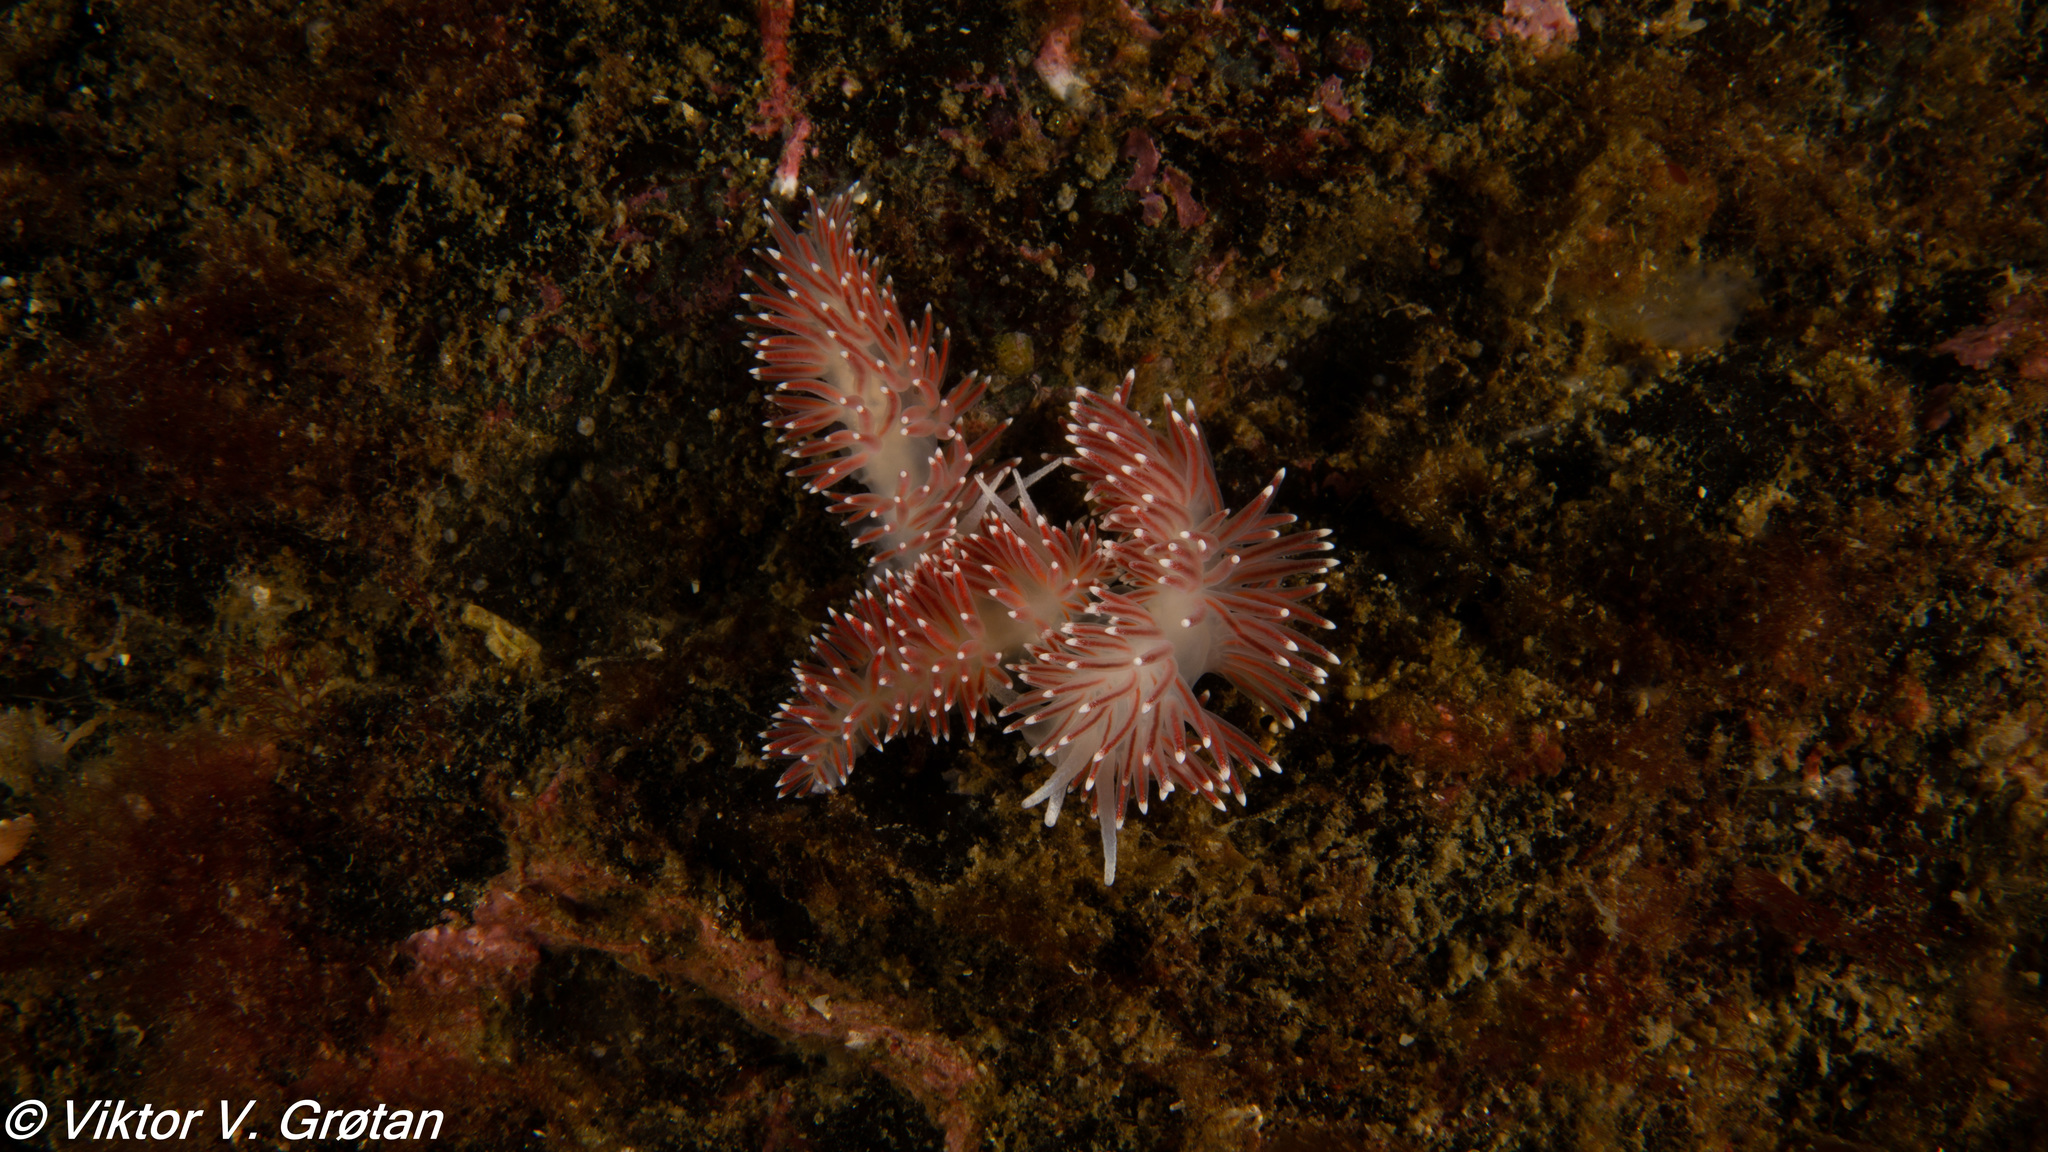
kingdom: Animalia
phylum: Mollusca
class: Gastropoda
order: Nudibranchia
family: Flabellinidae
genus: Carronella
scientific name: Carronella pellucida
